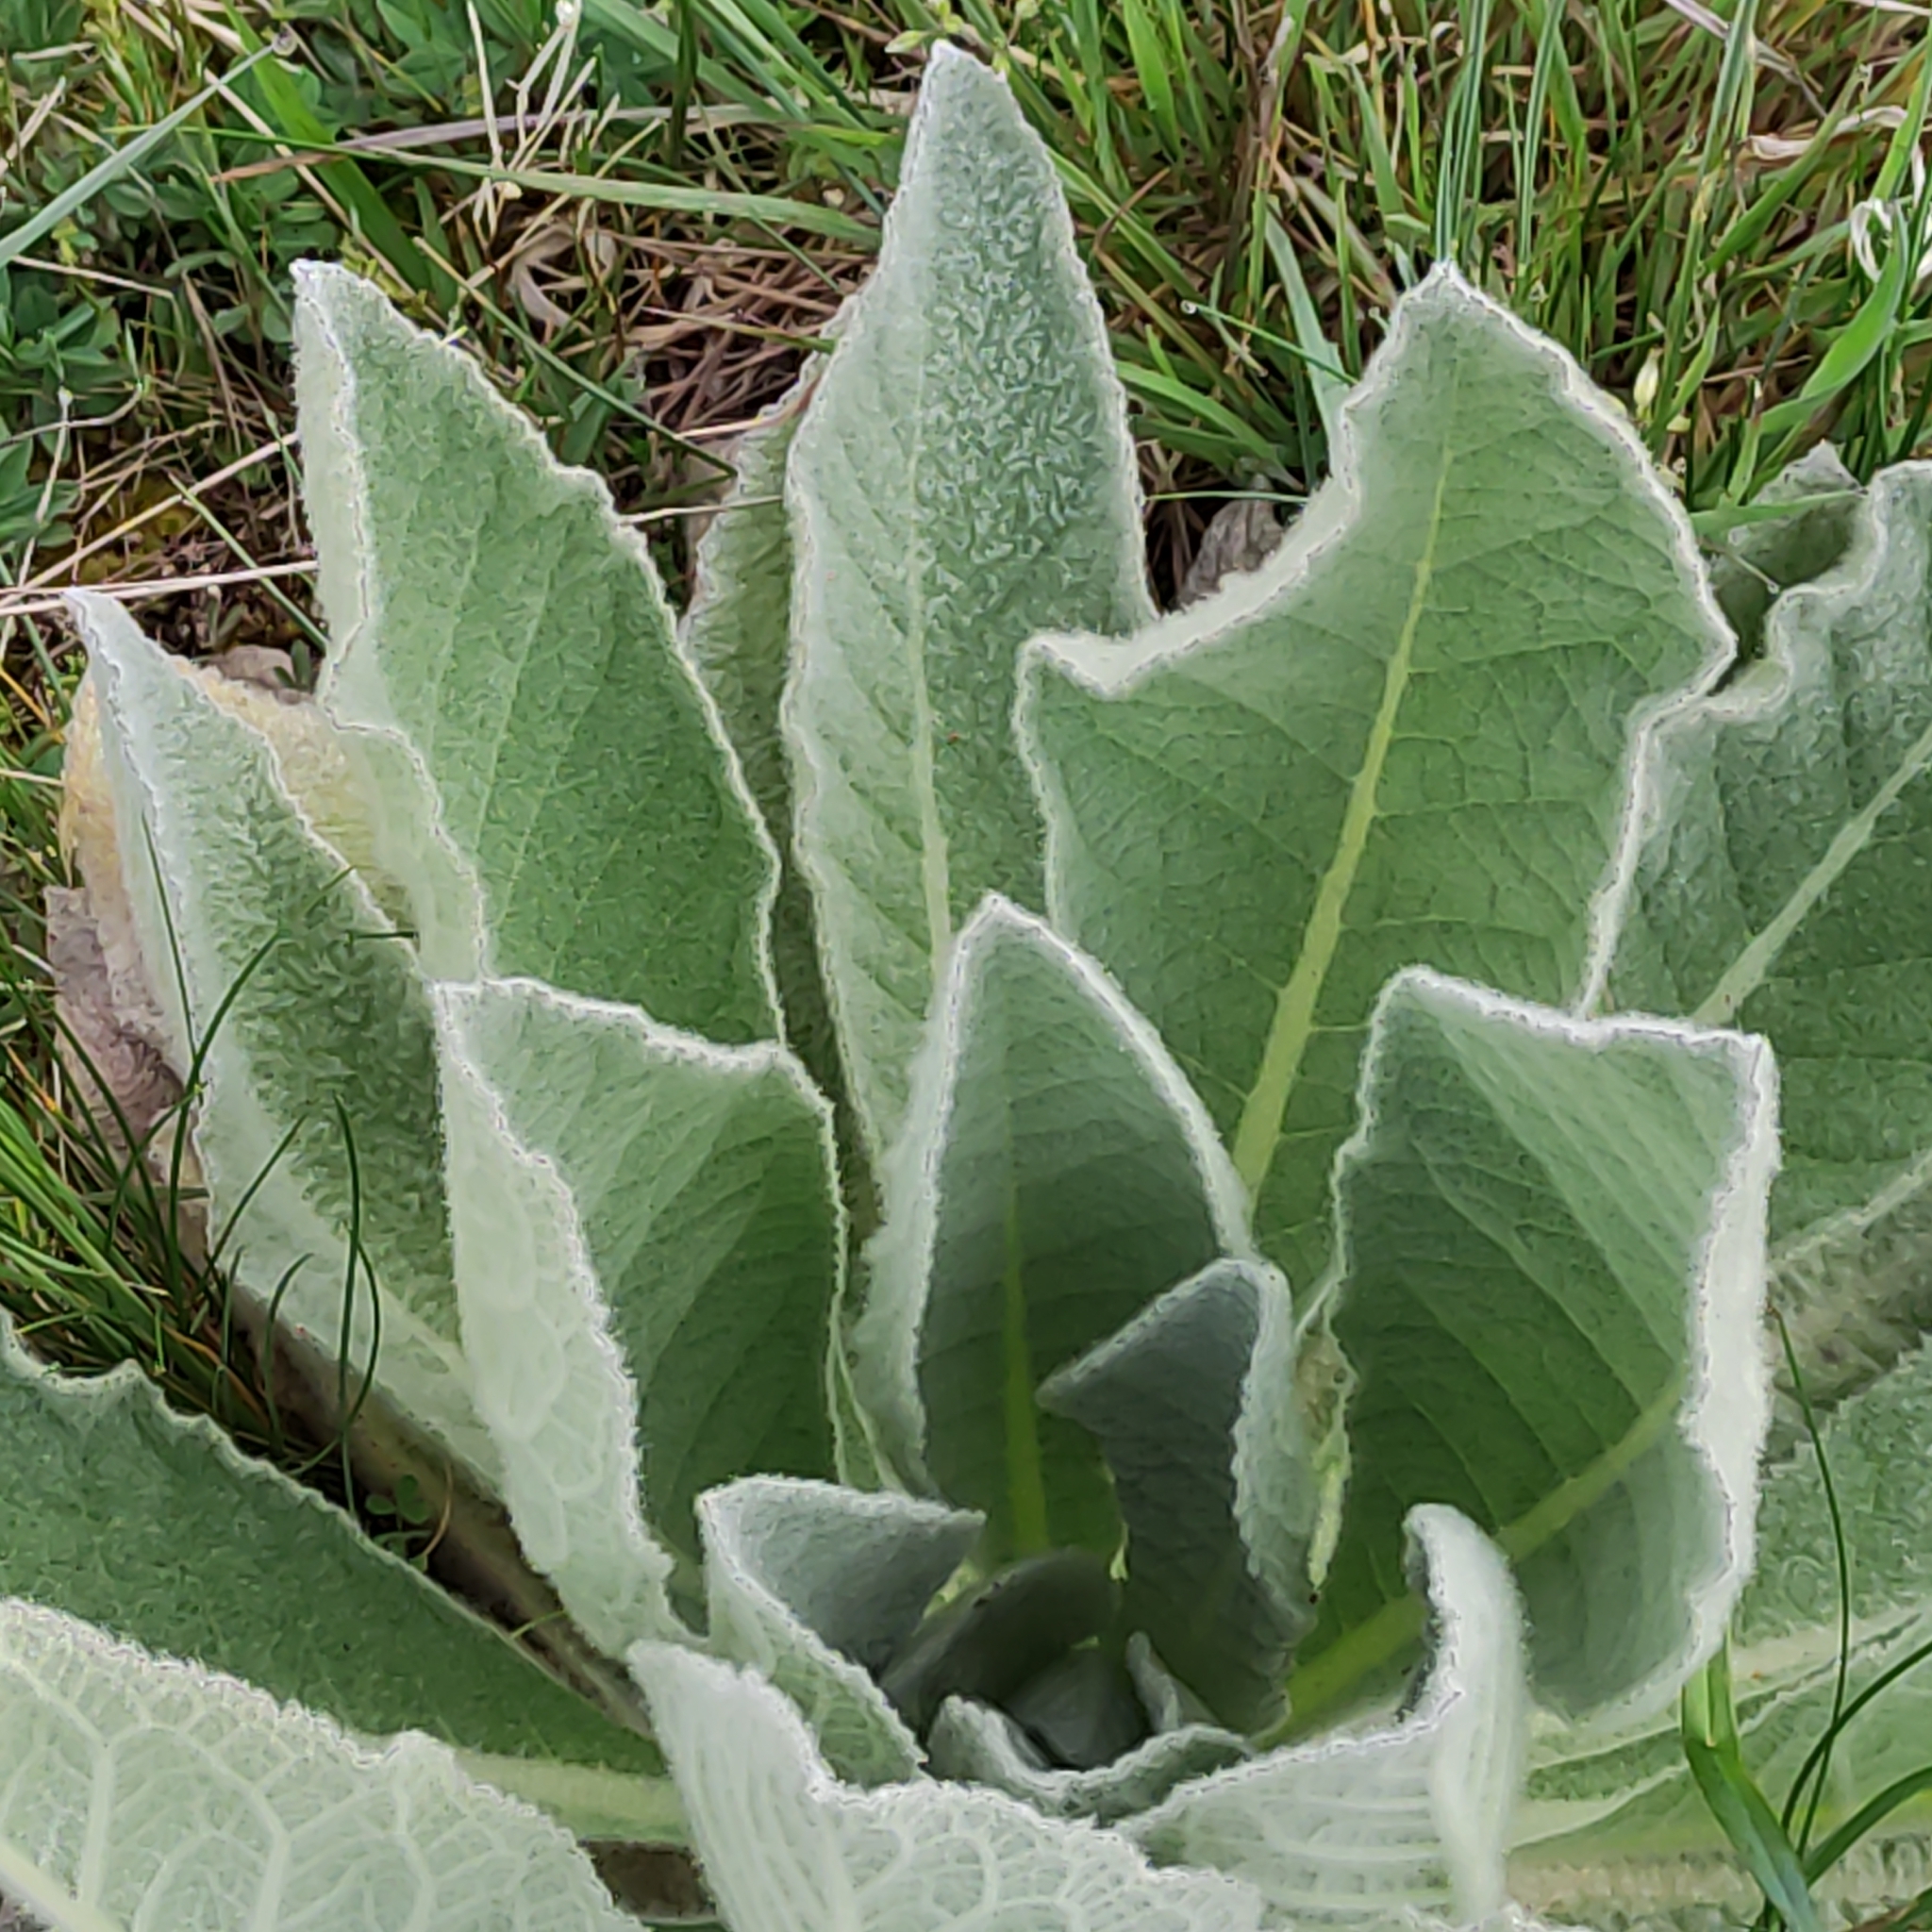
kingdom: Plantae
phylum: Tracheophyta
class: Magnoliopsida
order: Lamiales
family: Scrophulariaceae
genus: Verbascum
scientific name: Verbascum thapsus
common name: Common mullein
